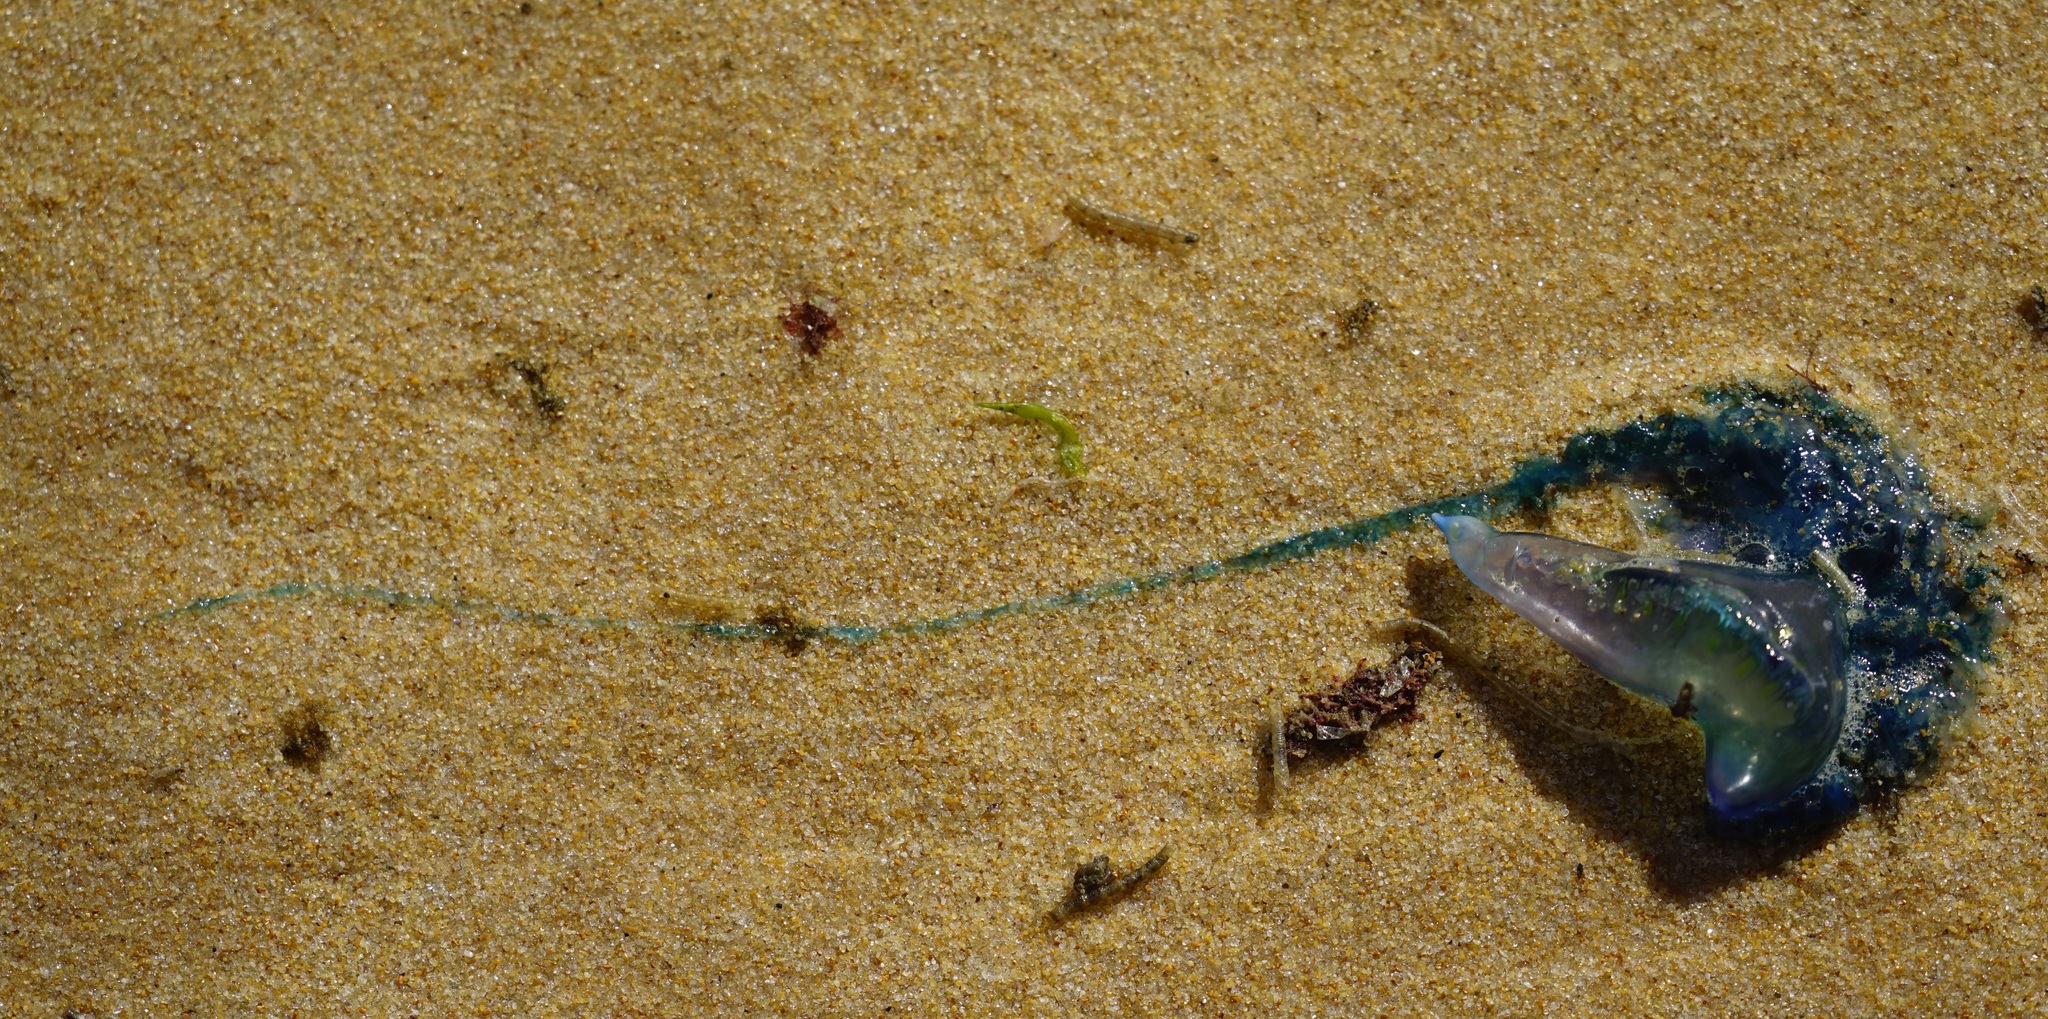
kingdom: Animalia
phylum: Cnidaria
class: Hydrozoa
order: Siphonophorae
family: Physaliidae
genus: Physalia
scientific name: Physalia physalis
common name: Portuguese man-of-war
